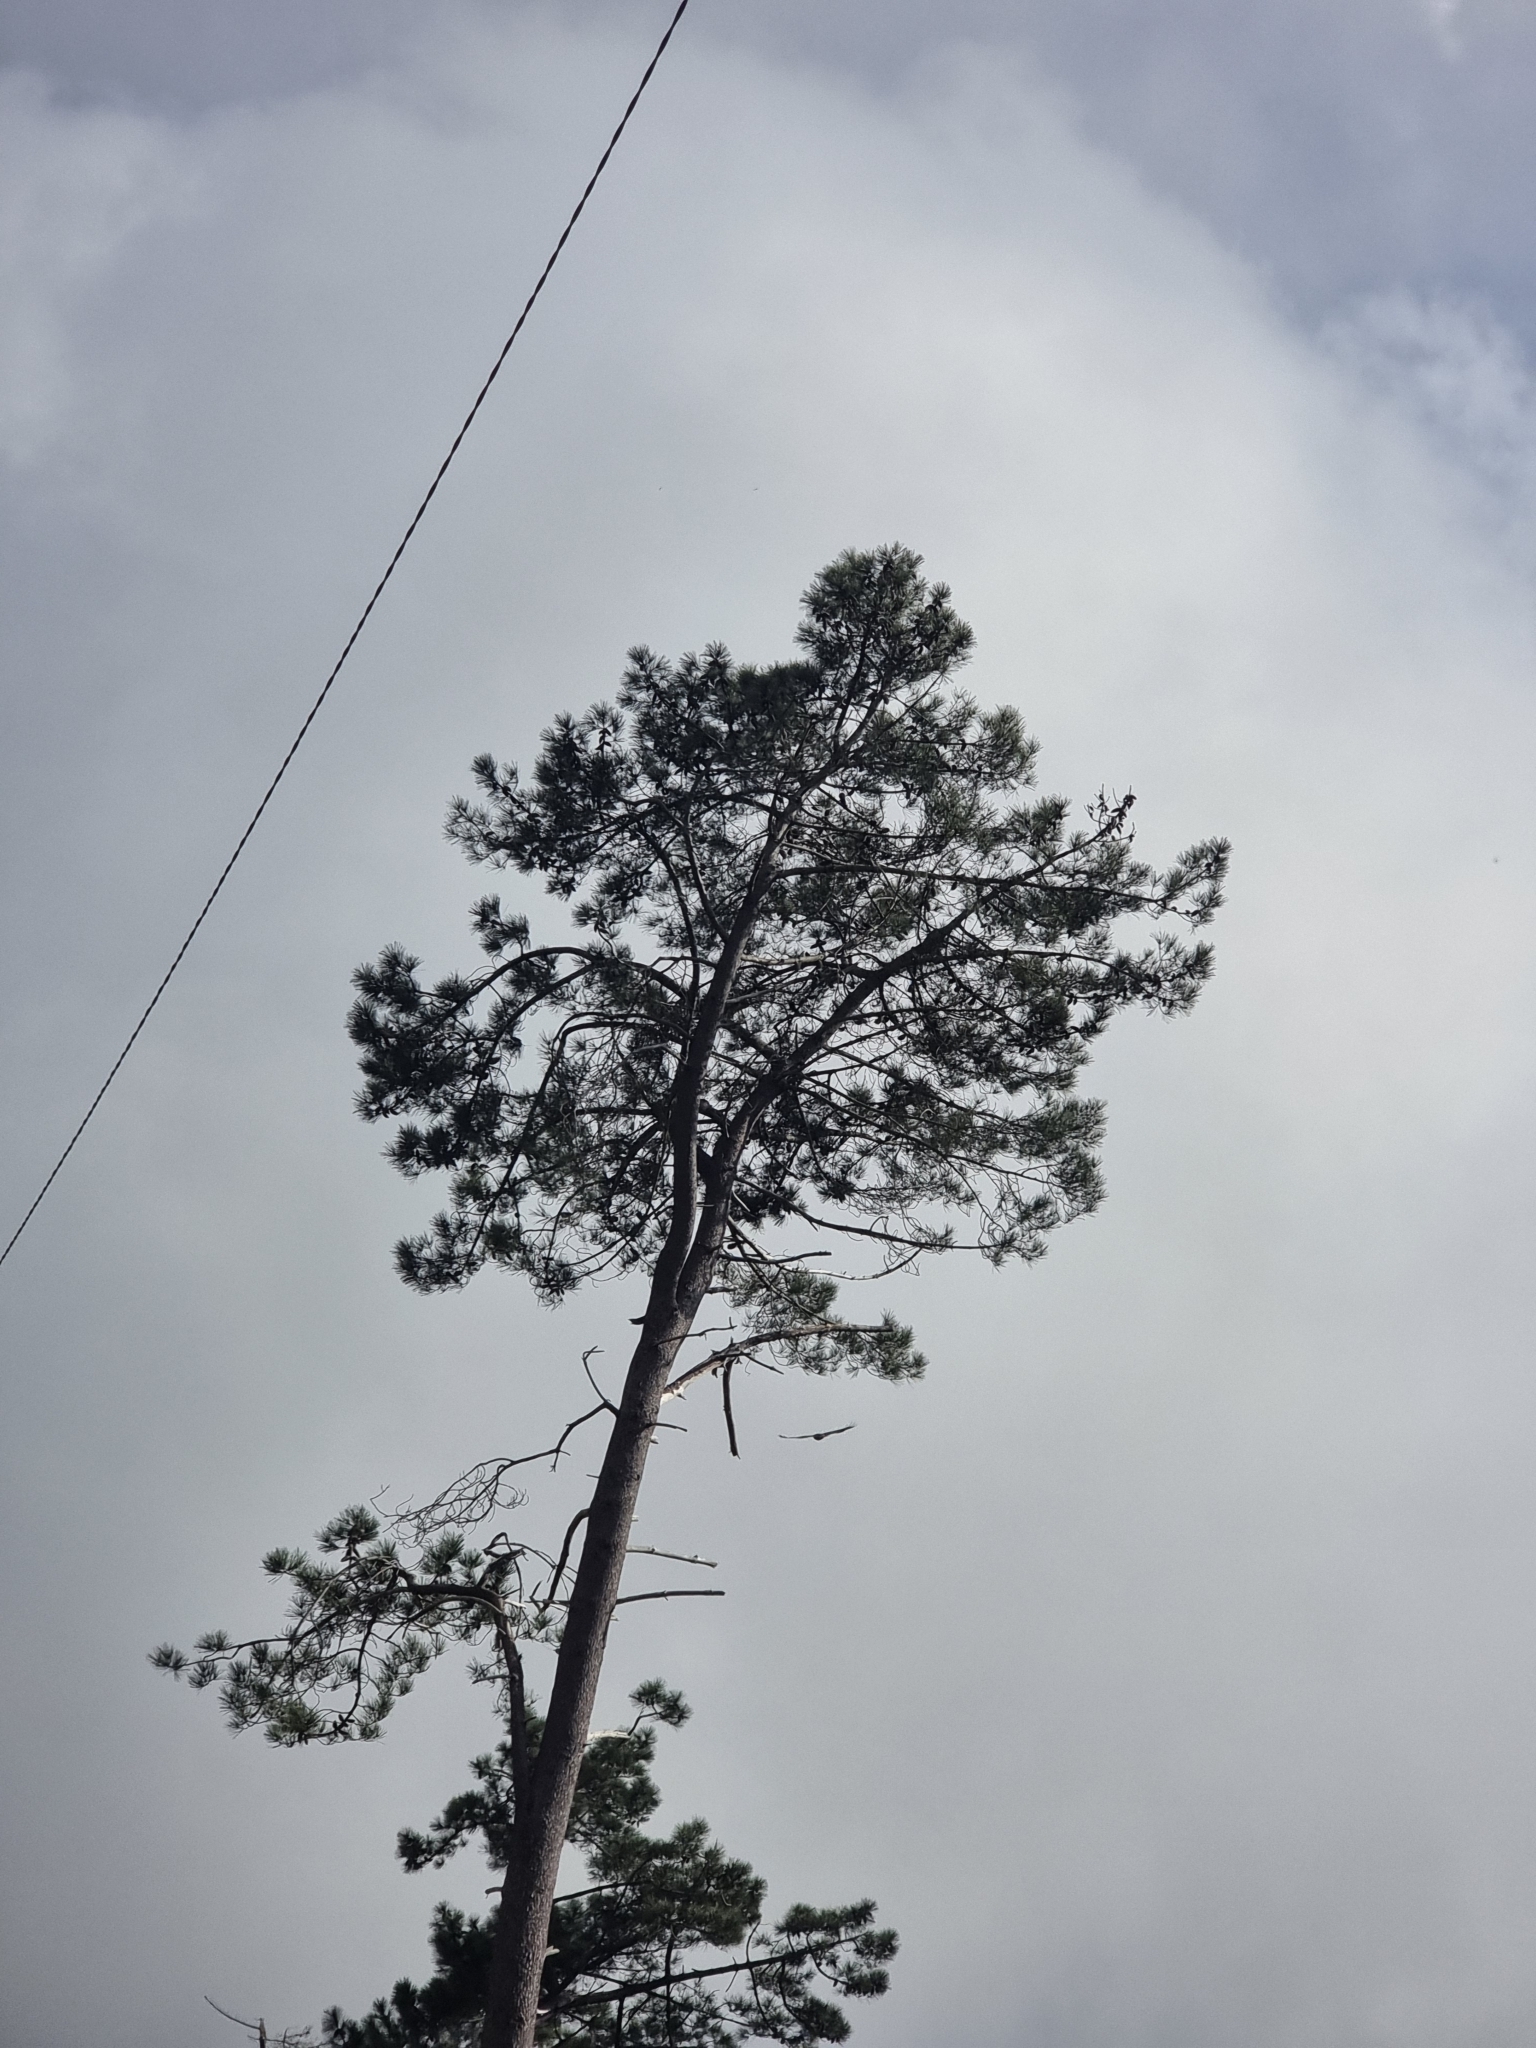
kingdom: Plantae
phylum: Tracheophyta
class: Pinopsida
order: Pinales
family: Pinaceae
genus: Pinus
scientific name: Pinus pinaster
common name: Maritime pine
